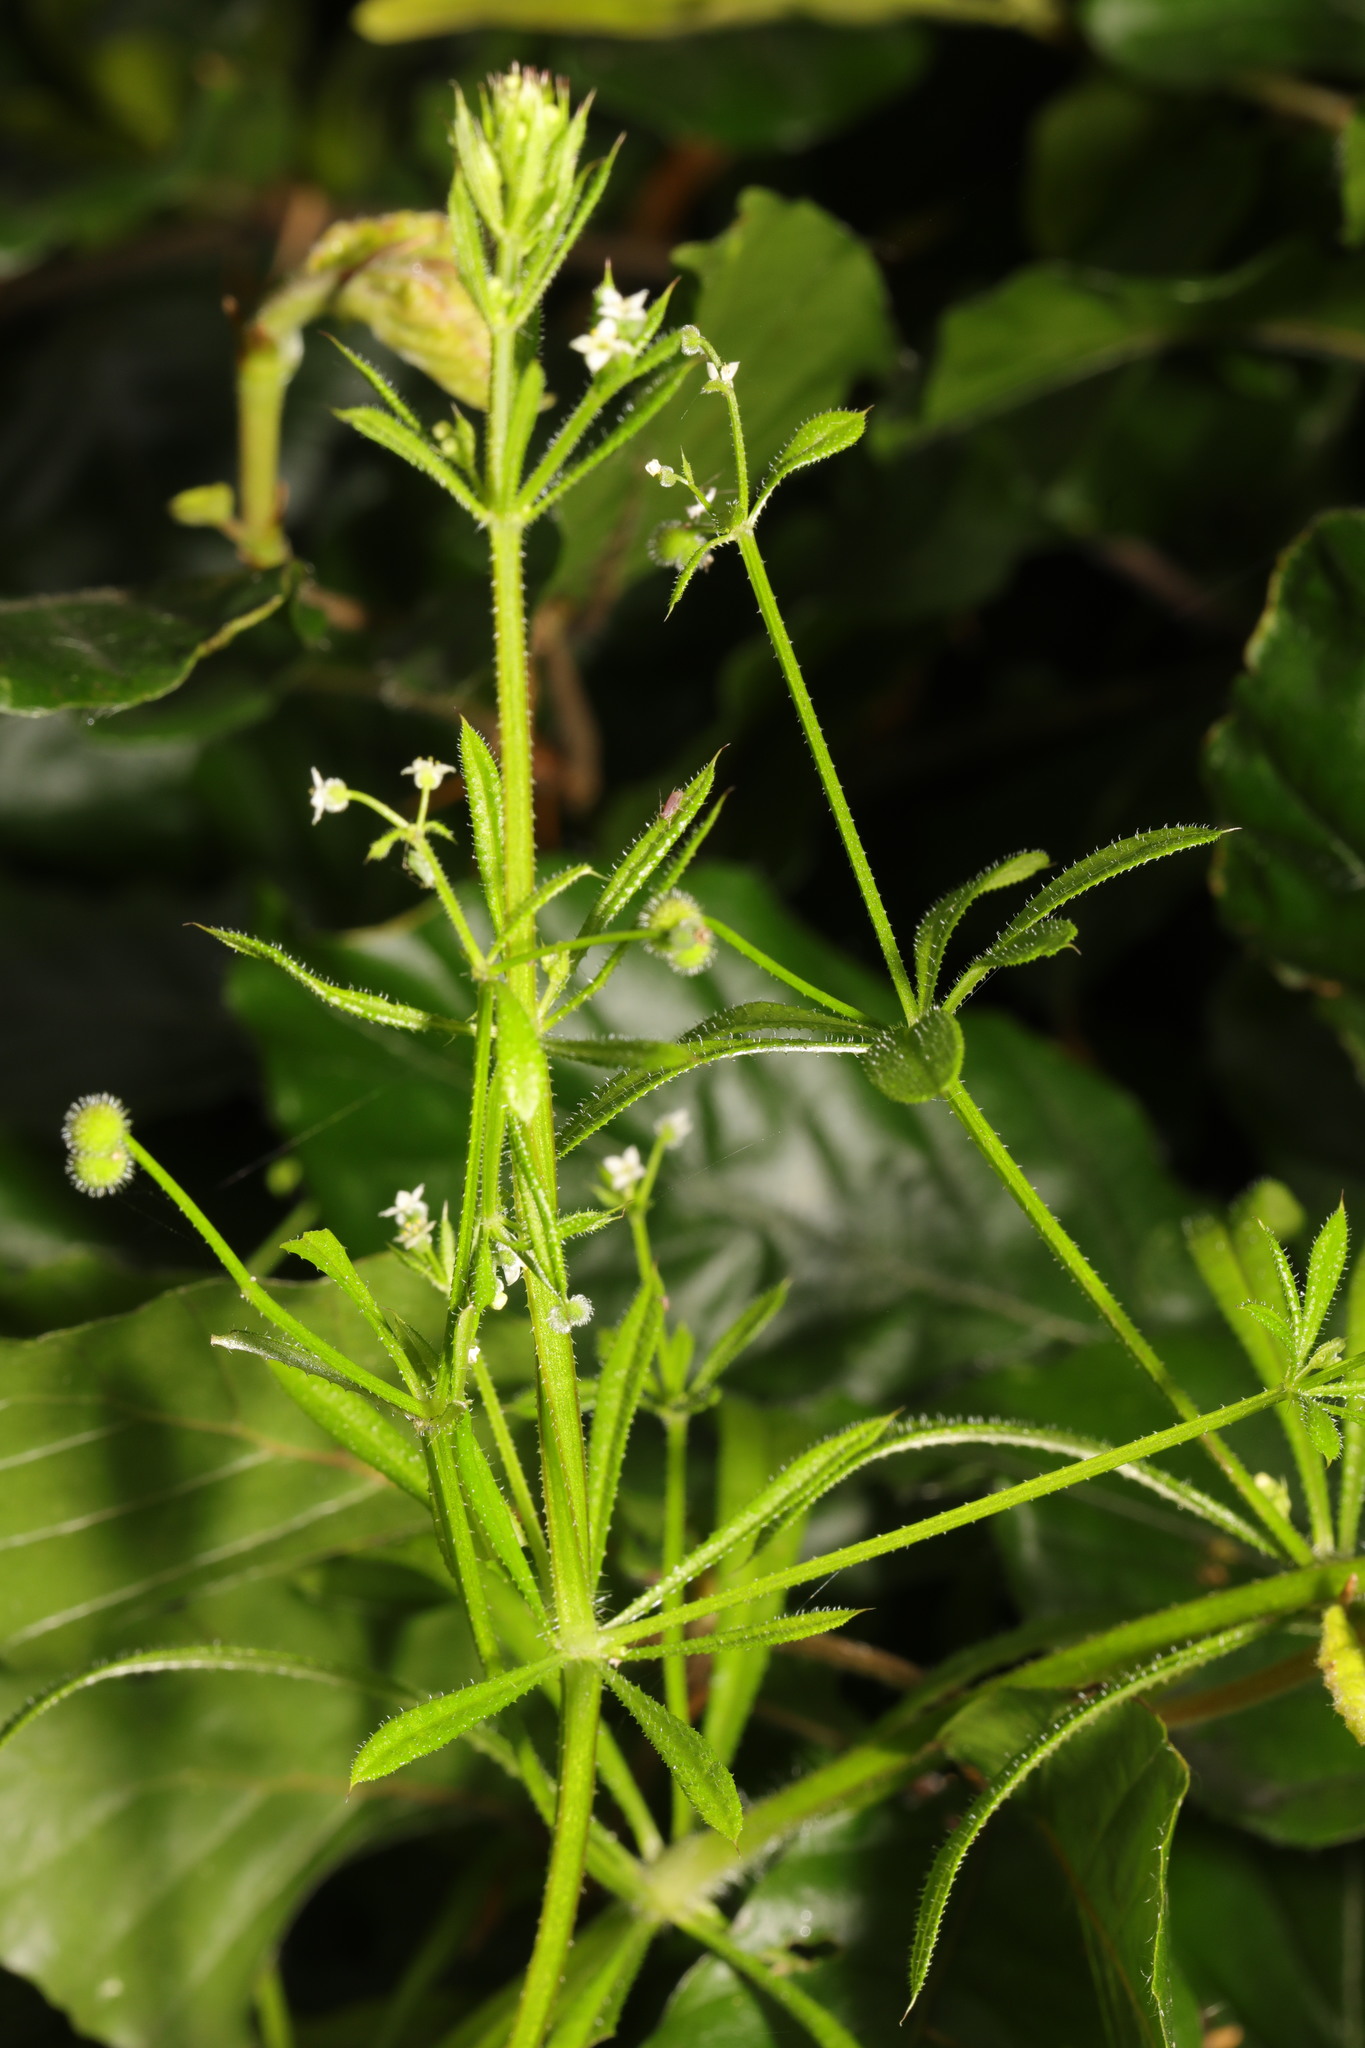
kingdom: Plantae
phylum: Tracheophyta
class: Magnoliopsida
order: Gentianales
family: Rubiaceae
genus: Galium
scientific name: Galium aparine
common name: Cleavers
